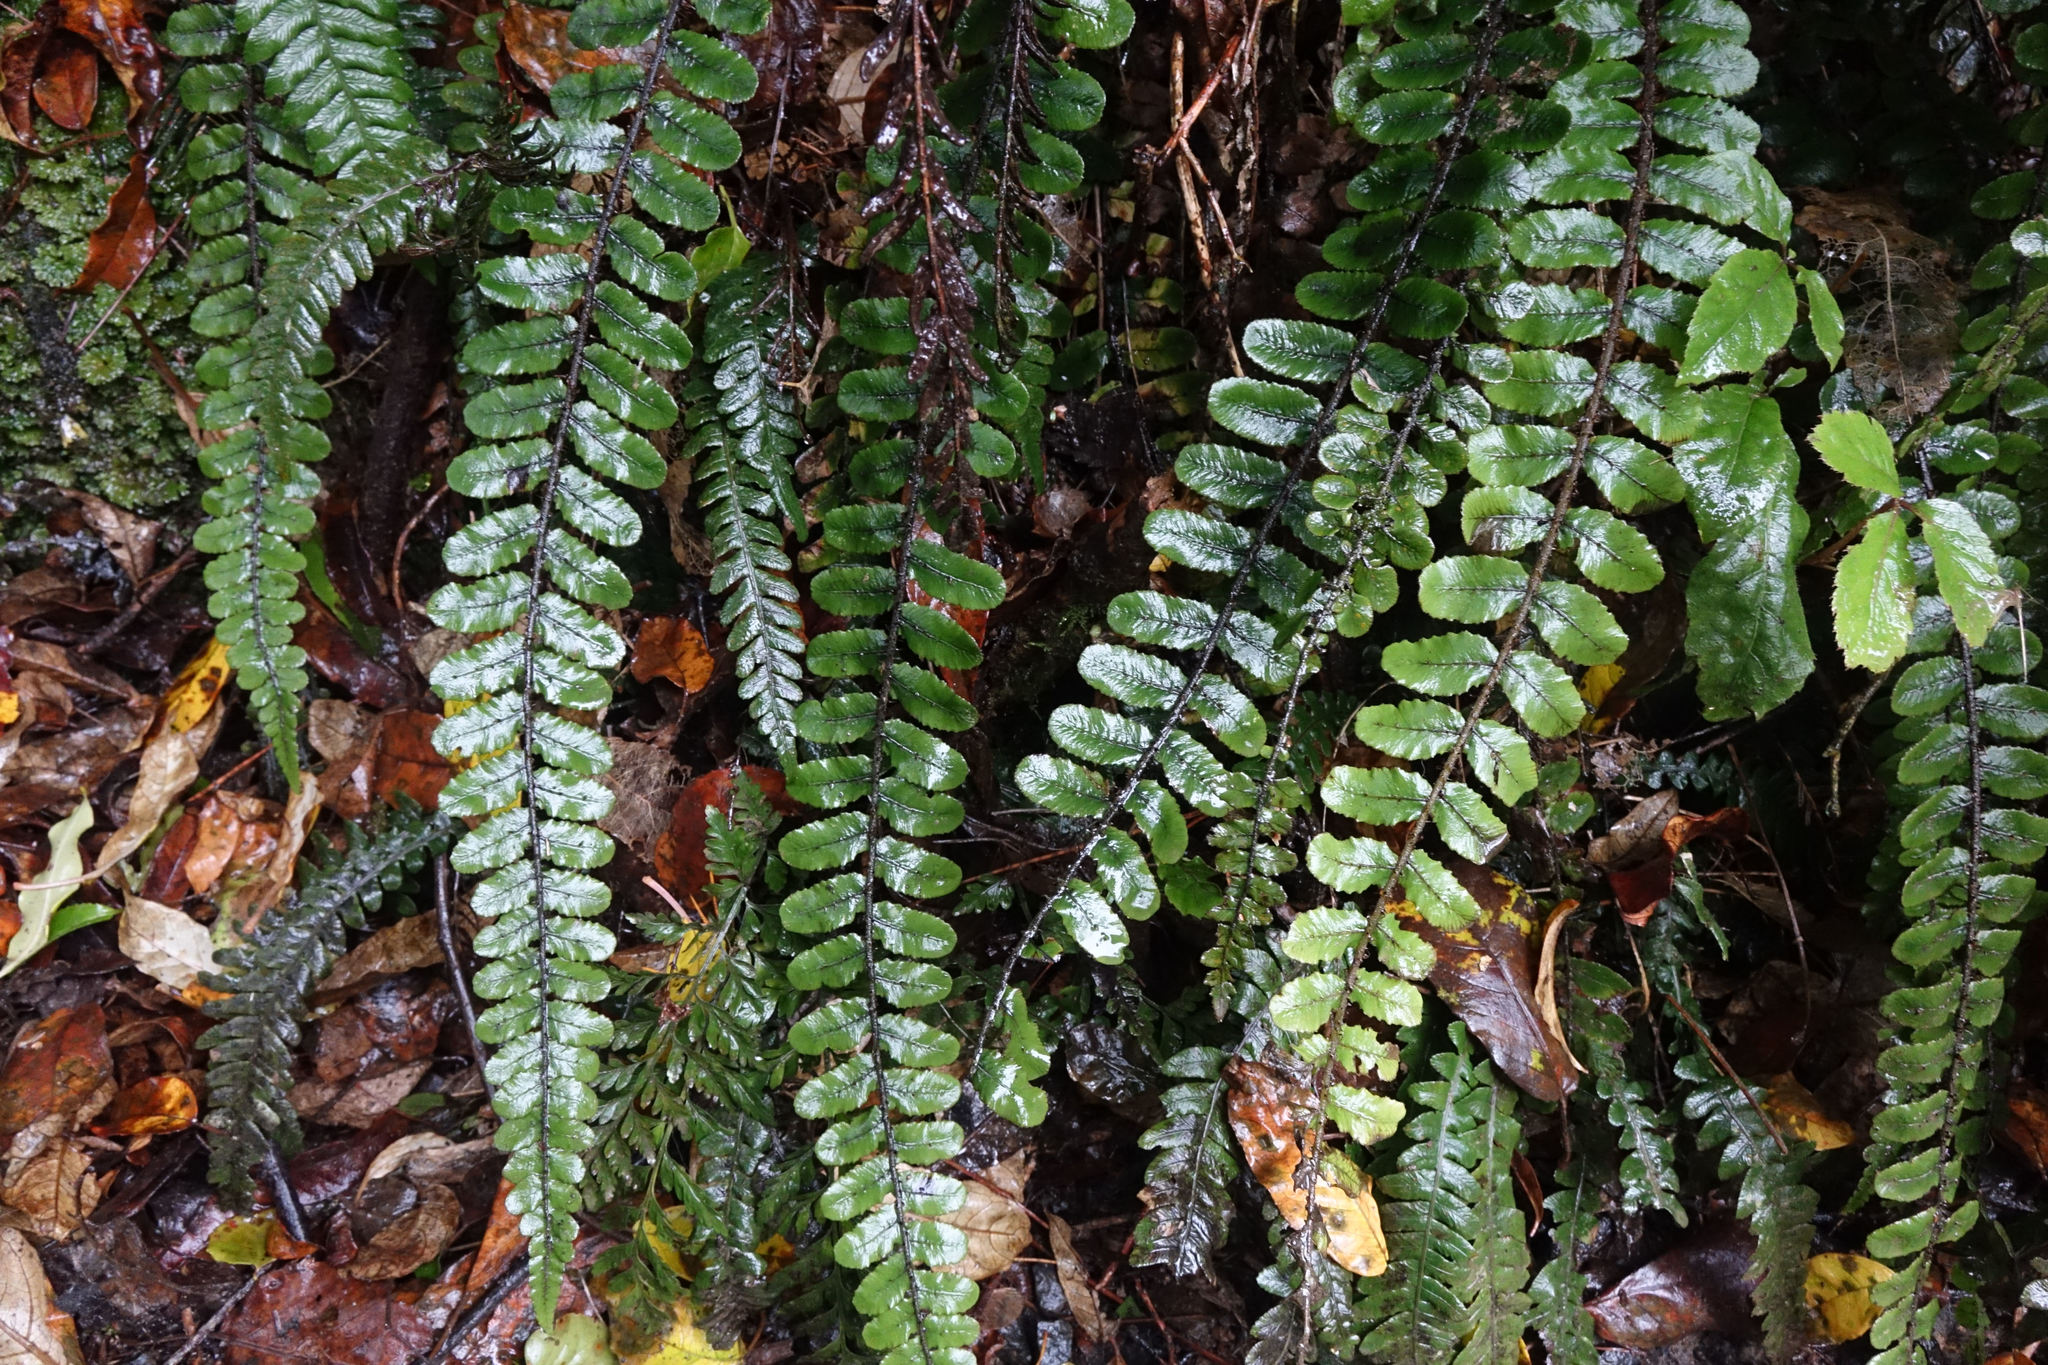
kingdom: Plantae
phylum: Tracheophyta
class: Polypodiopsida
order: Polypodiales
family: Blechnaceae
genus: Cranfillia
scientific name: Cranfillia fluviatilis
